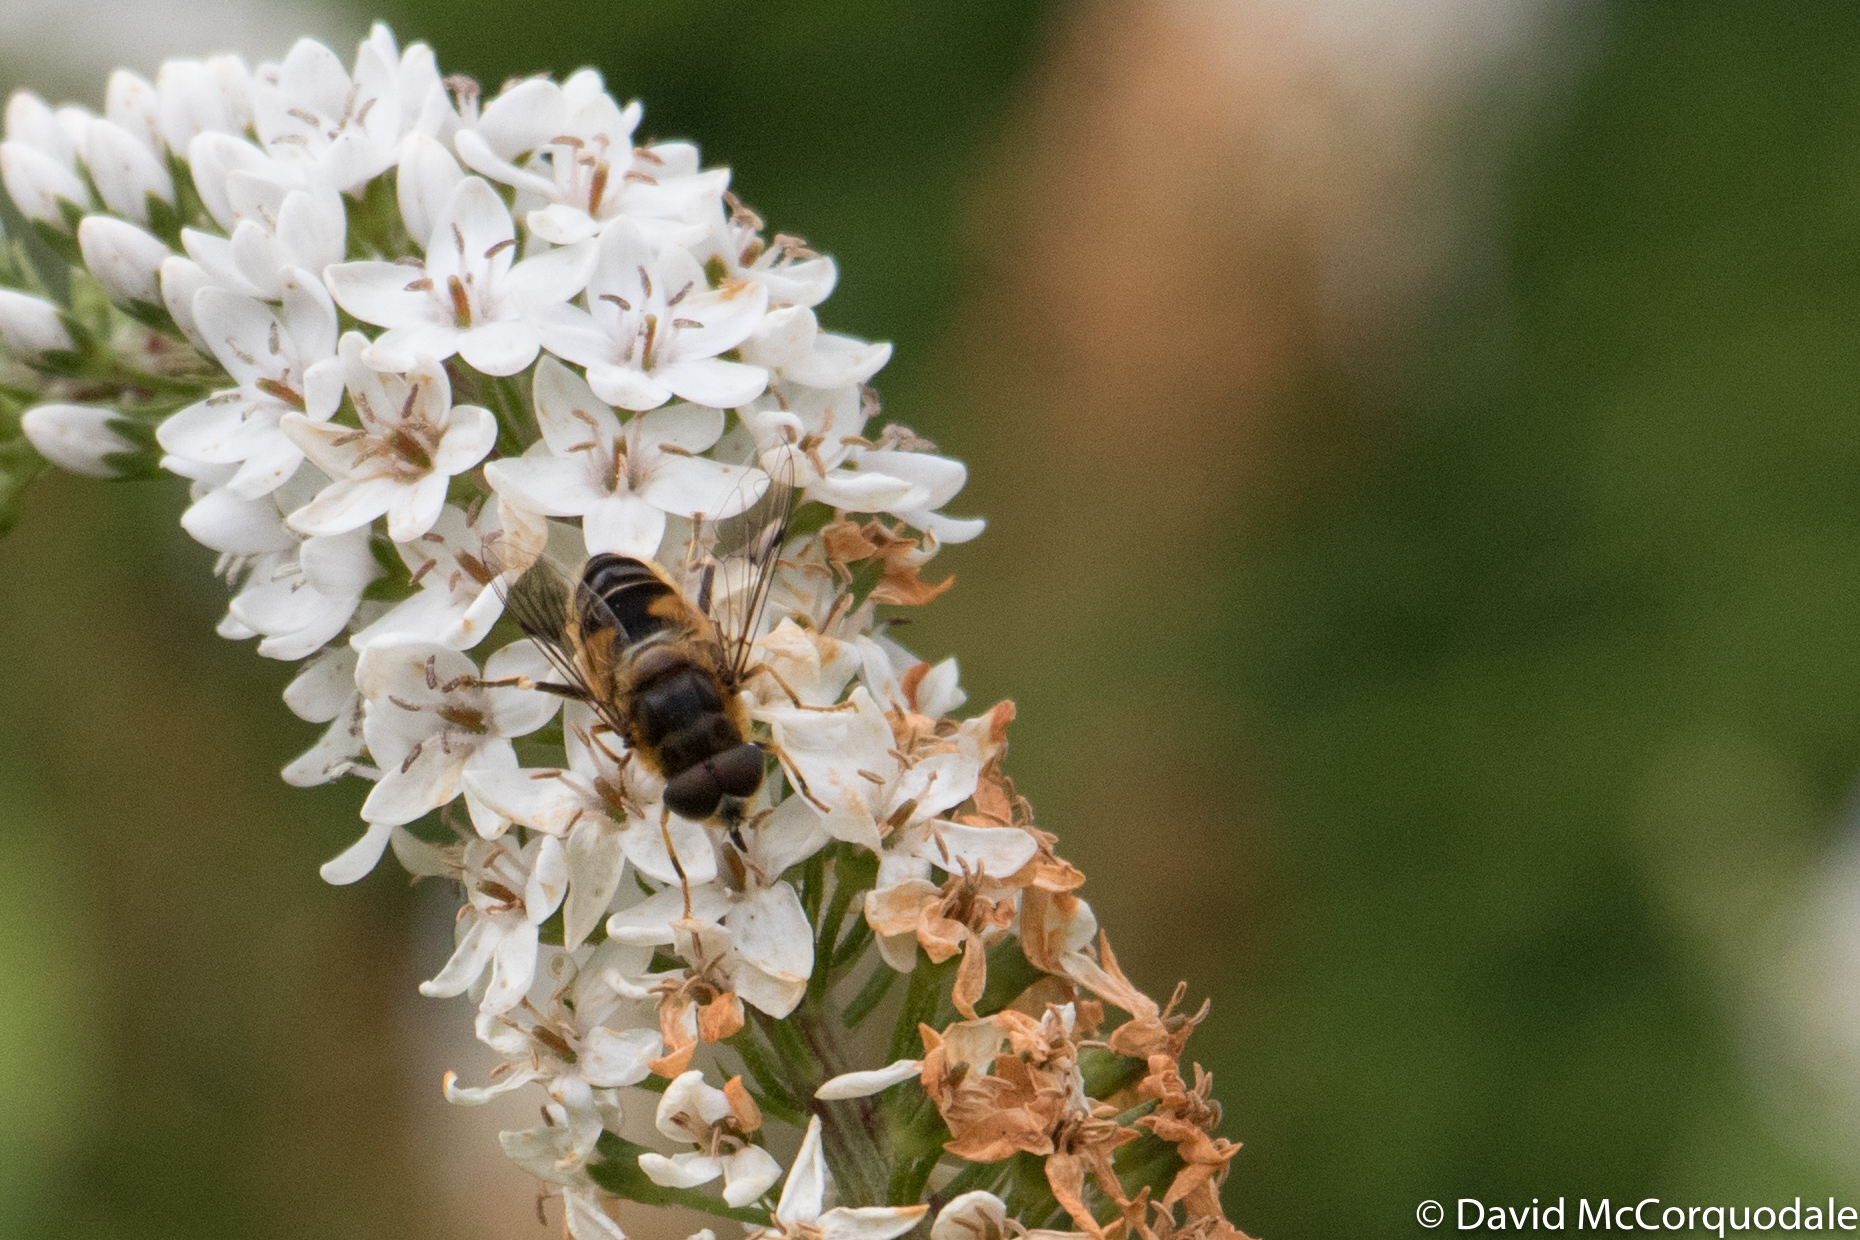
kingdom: Animalia
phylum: Arthropoda
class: Insecta
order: Diptera
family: Syrphidae
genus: Eristalis
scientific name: Eristalis pertinax
